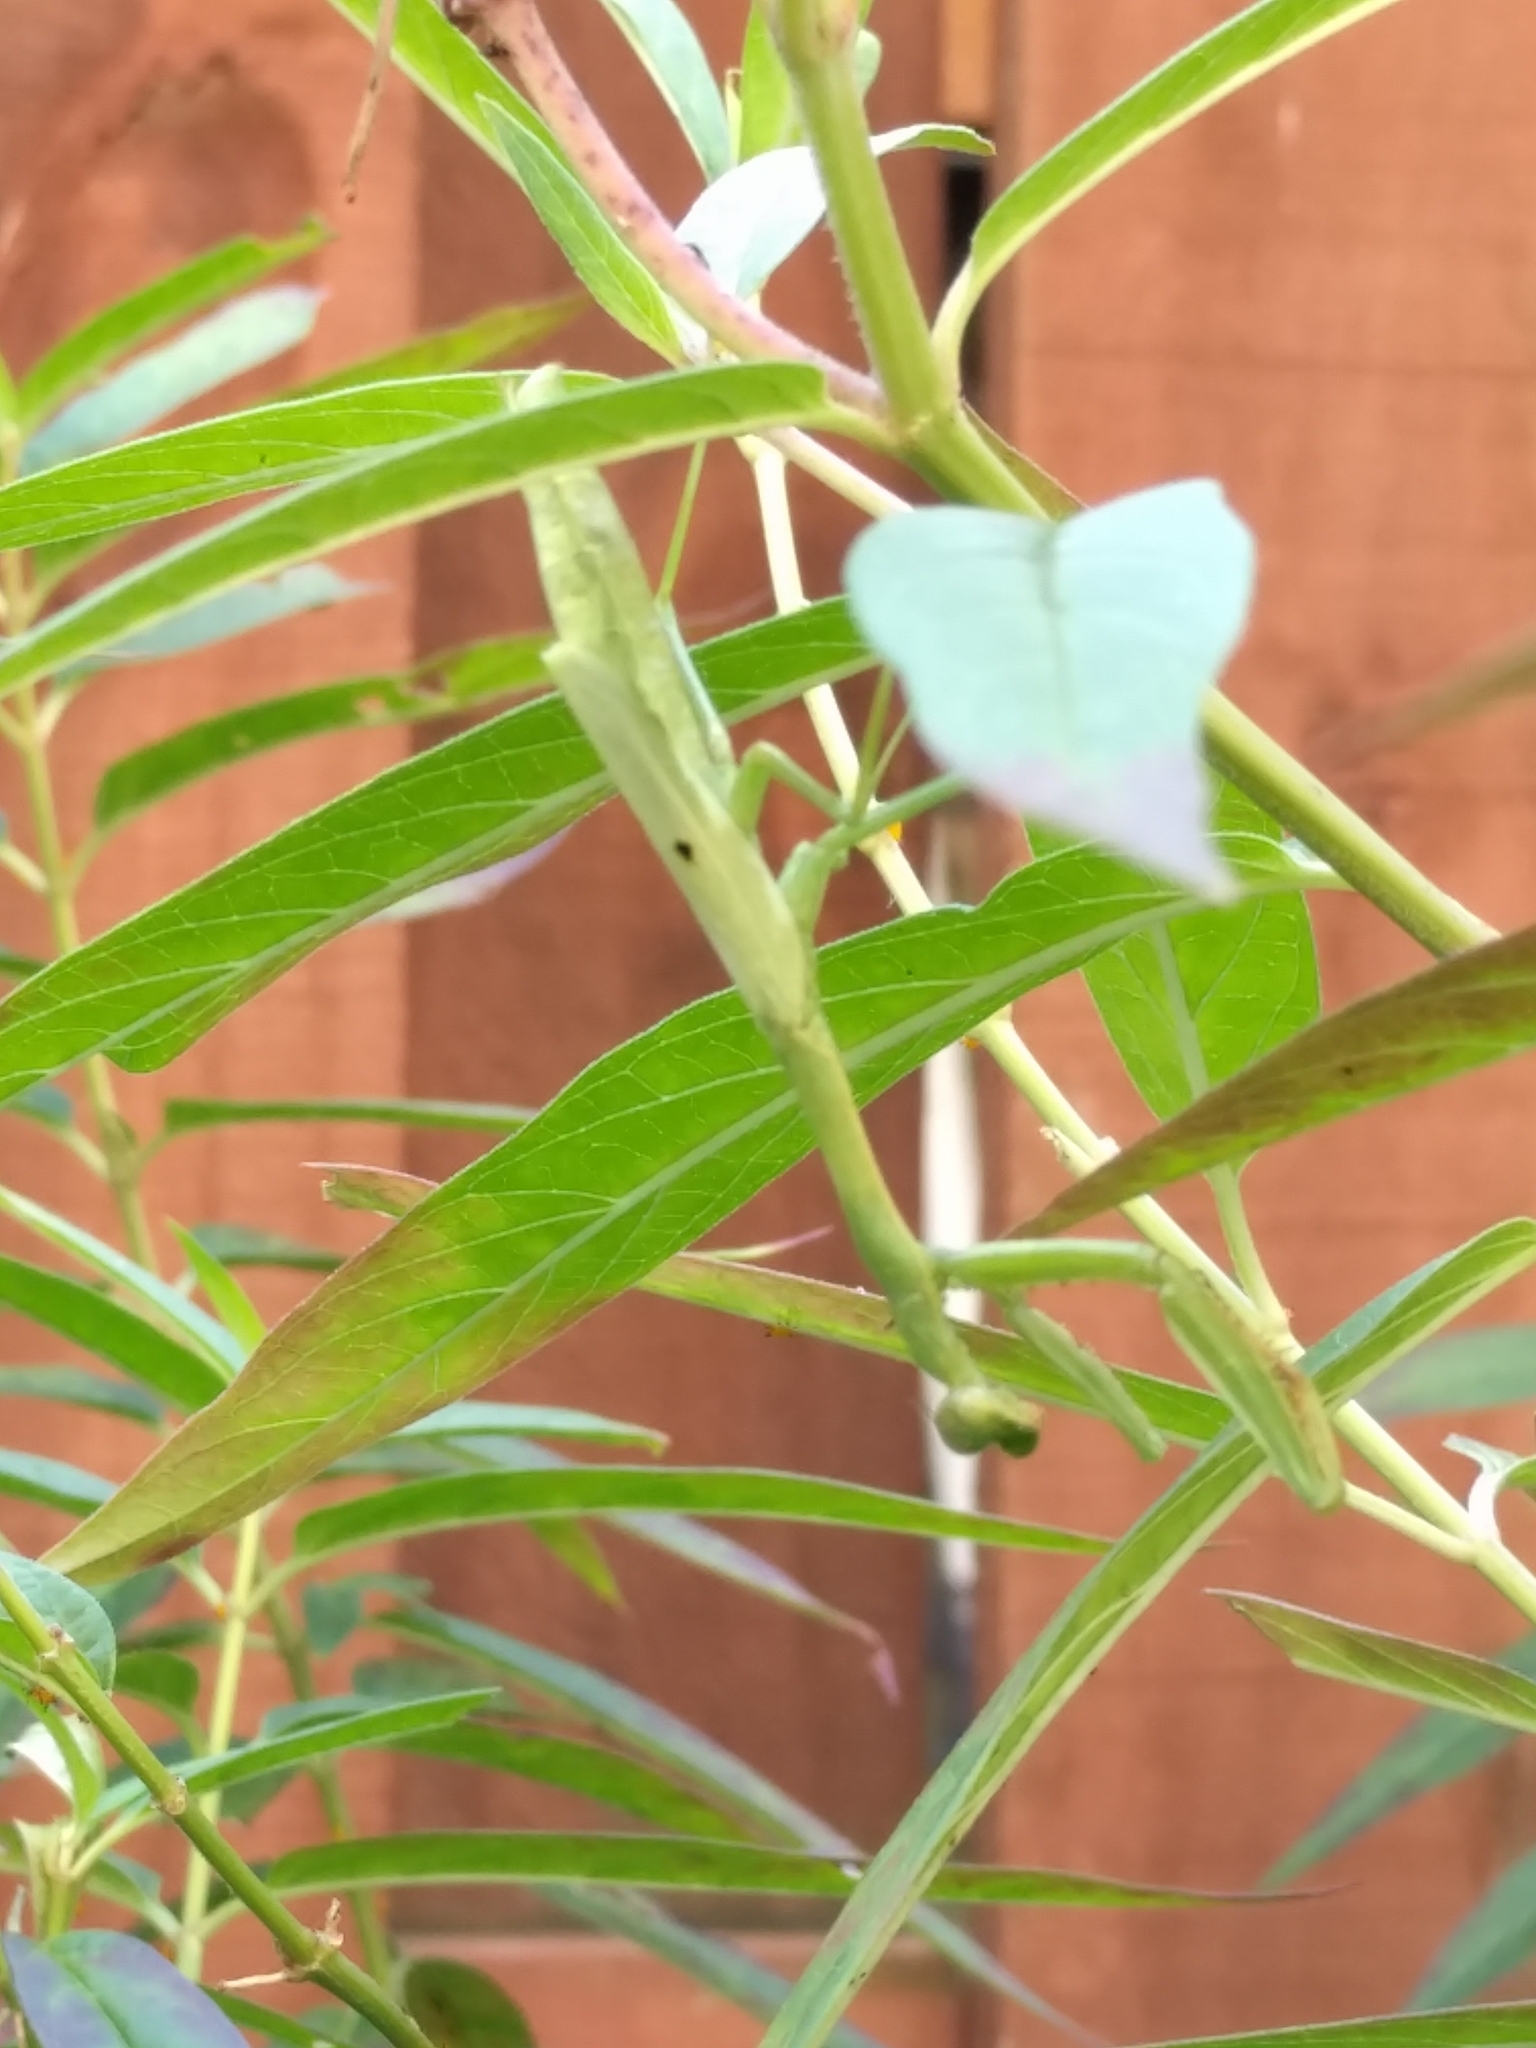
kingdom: Animalia
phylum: Arthropoda
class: Insecta
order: Mantodea
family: Mantidae
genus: Stagmomantis
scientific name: Stagmomantis carolina
